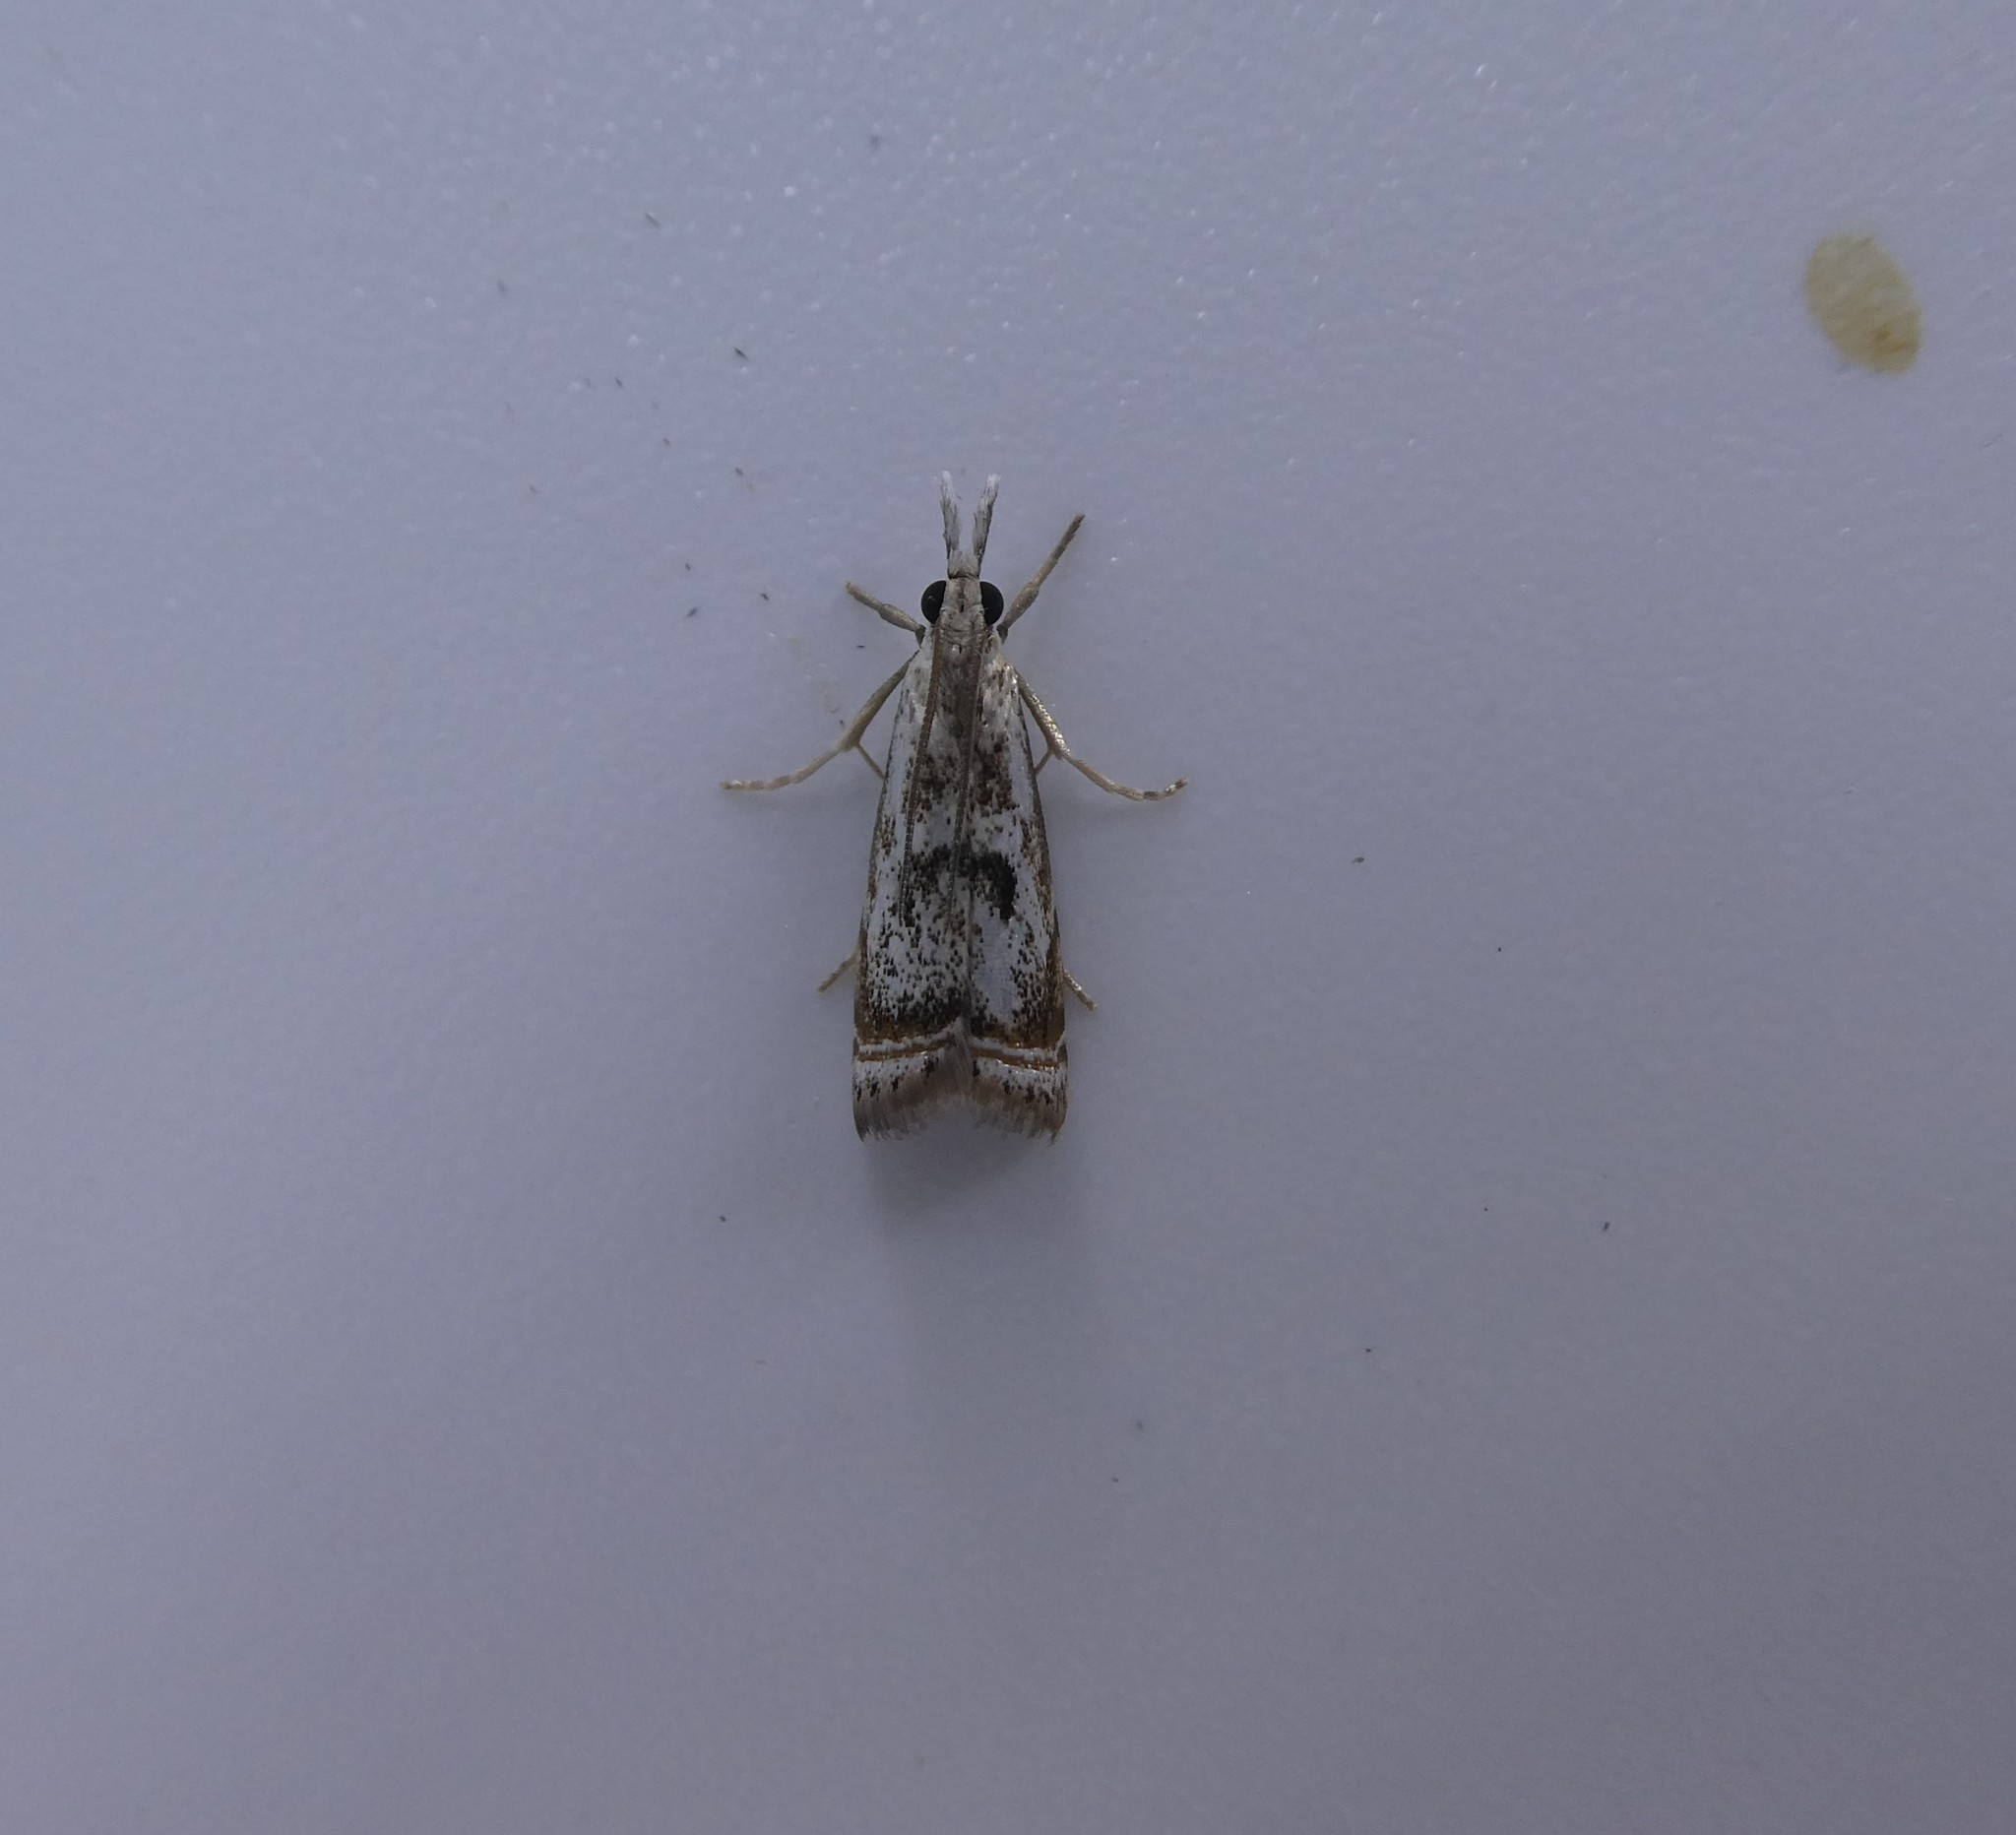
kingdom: Animalia
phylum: Arthropoda
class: Insecta
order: Lepidoptera
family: Crambidae
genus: Microcrambus
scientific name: Microcrambus elegans
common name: Elegant grass-veneer
